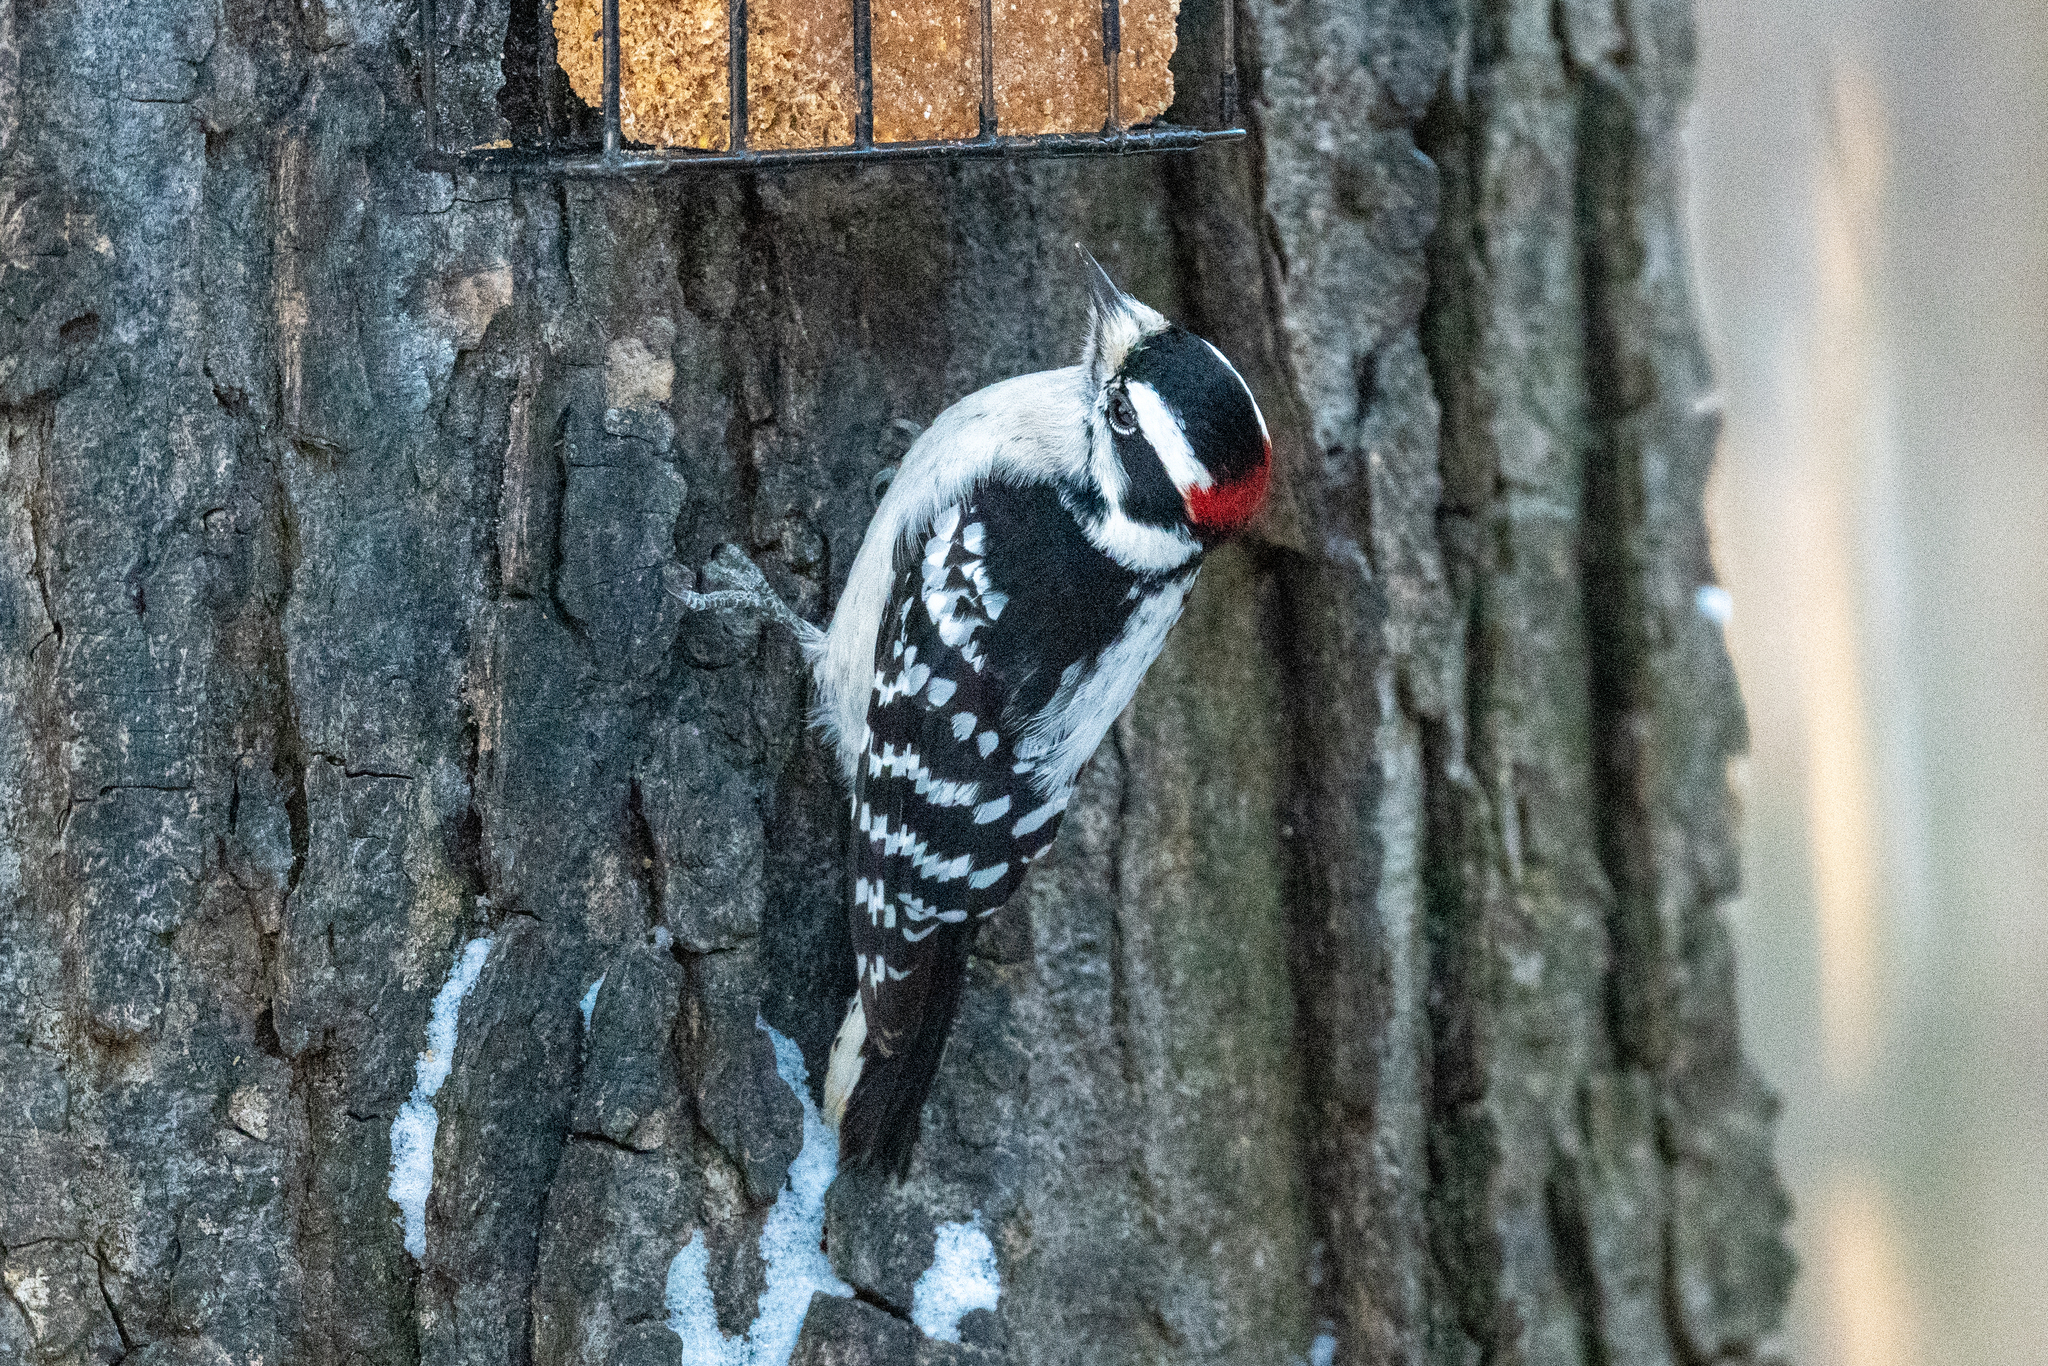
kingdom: Animalia
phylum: Chordata
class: Aves
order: Piciformes
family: Picidae
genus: Dryobates
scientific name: Dryobates pubescens
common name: Downy woodpecker
